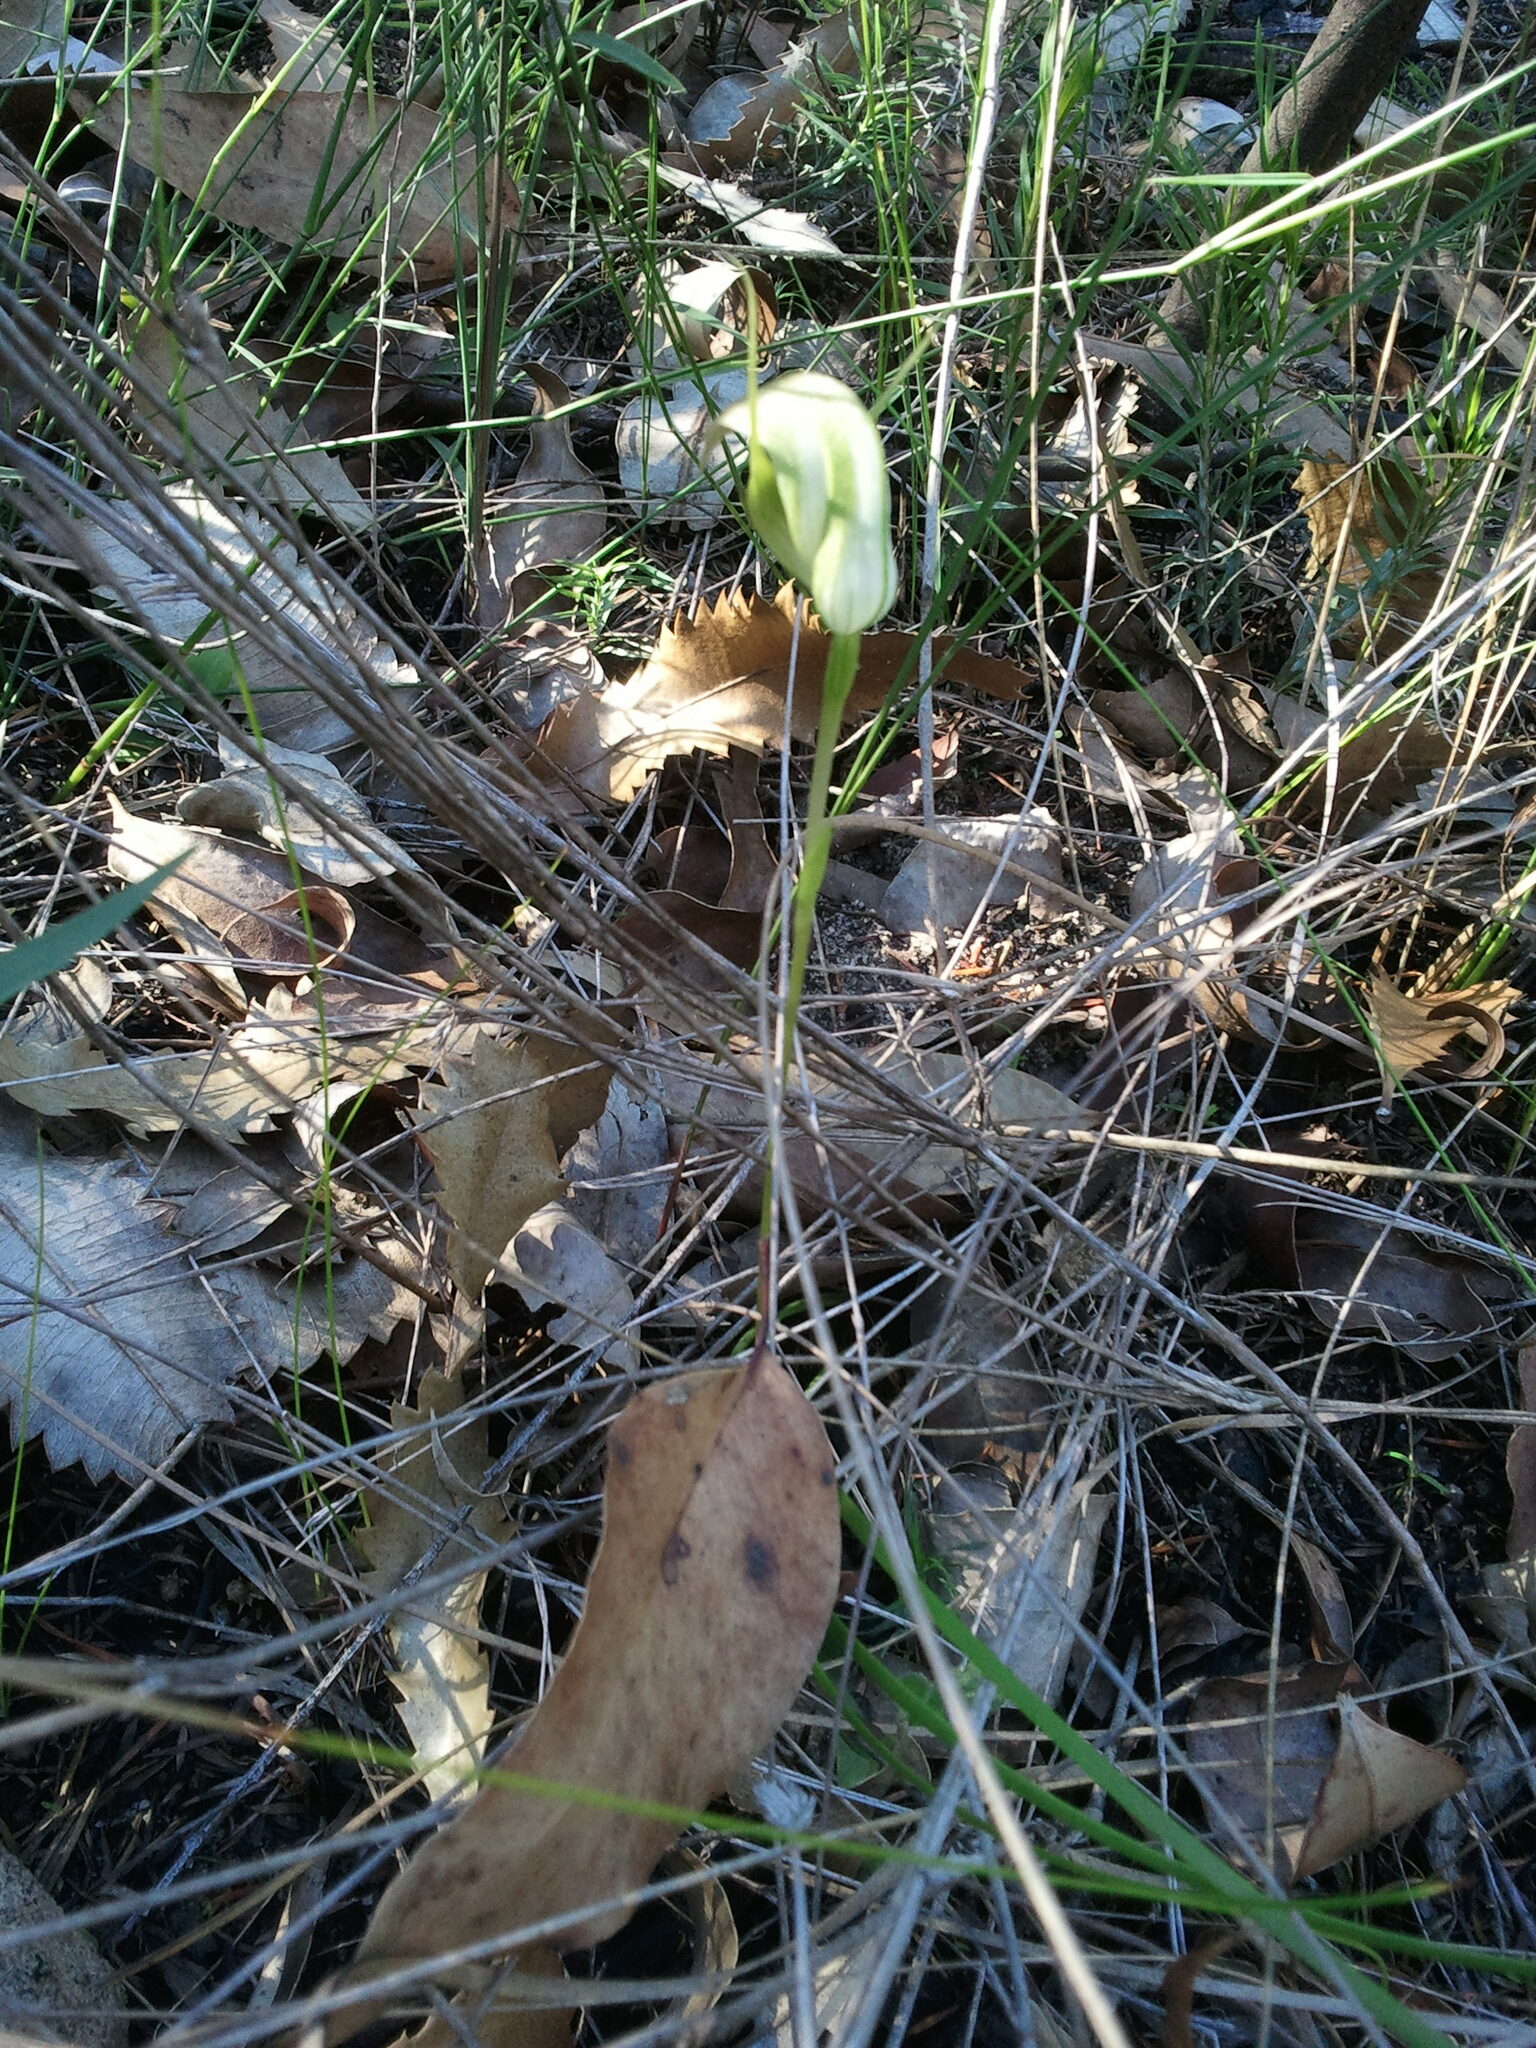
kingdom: Plantae
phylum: Tracheophyta
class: Liliopsida
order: Asparagales
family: Orchidaceae
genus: Pterostylis
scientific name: Pterostylis acuminata
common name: Pointed greenhood
